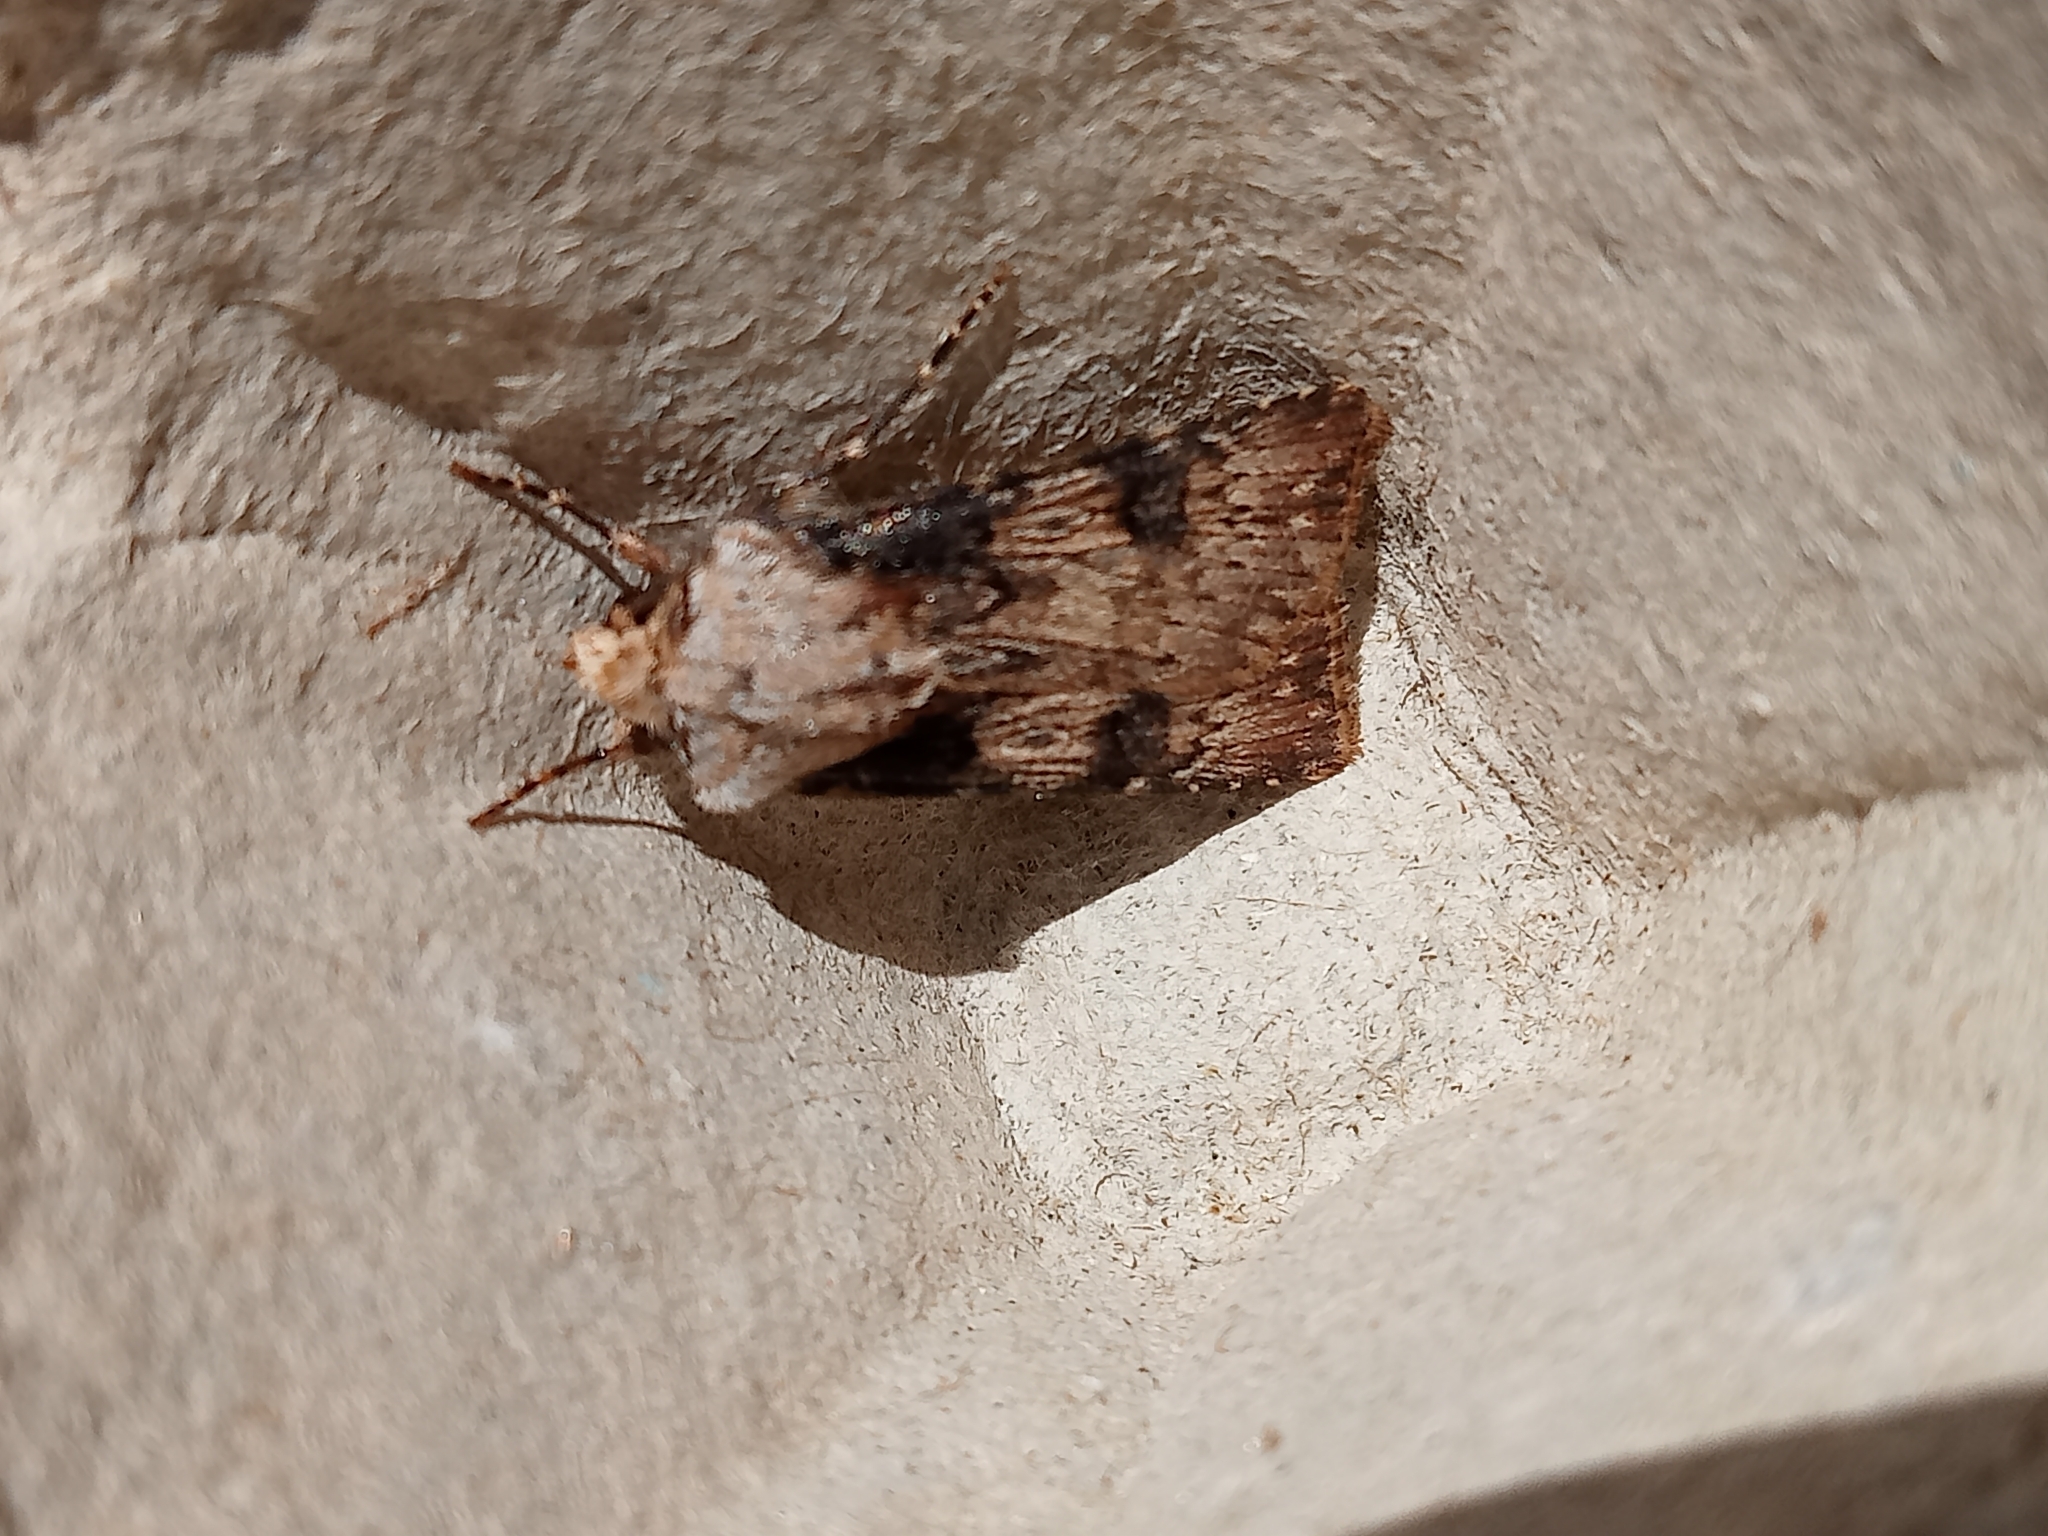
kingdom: Animalia
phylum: Arthropoda
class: Insecta
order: Lepidoptera
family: Noctuidae
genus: Agrotis
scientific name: Agrotis puta
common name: Shuttle-shaped dart
